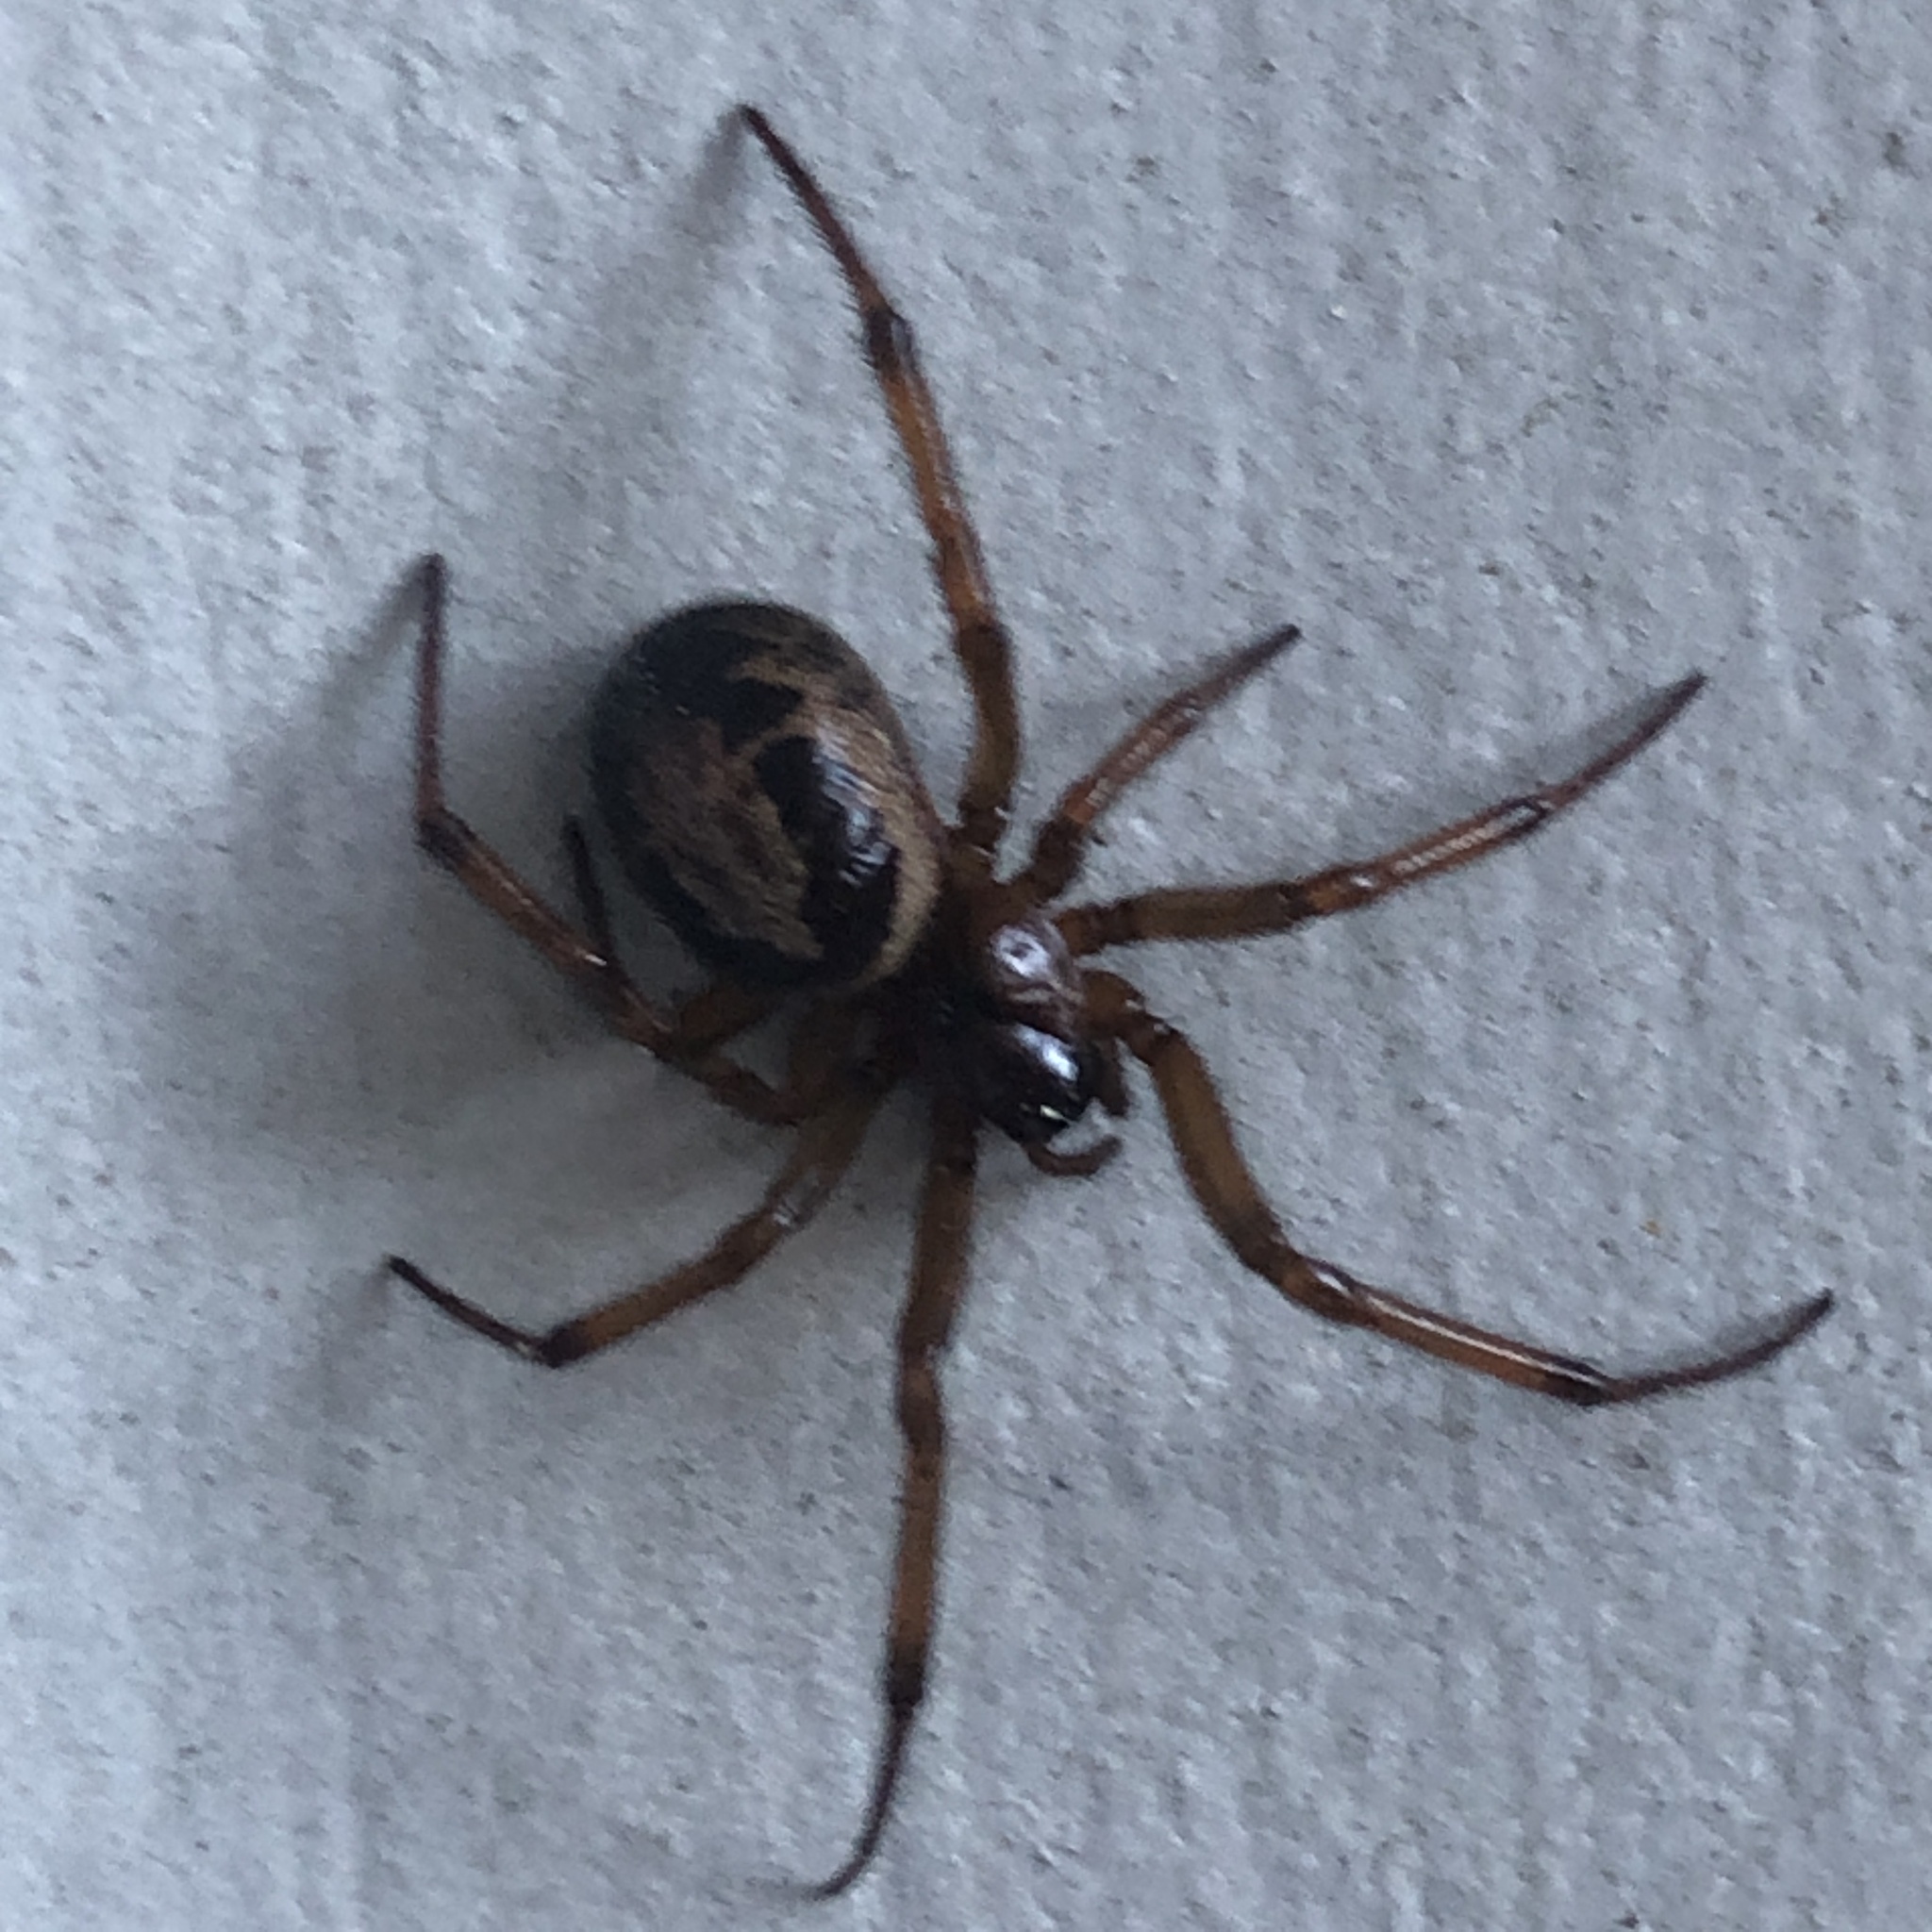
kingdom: Animalia
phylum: Arthropoda
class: Arachnida
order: Araneae
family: Theridiidae
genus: Steatoda
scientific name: Steatoda nobilis
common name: Cobweb weaver
